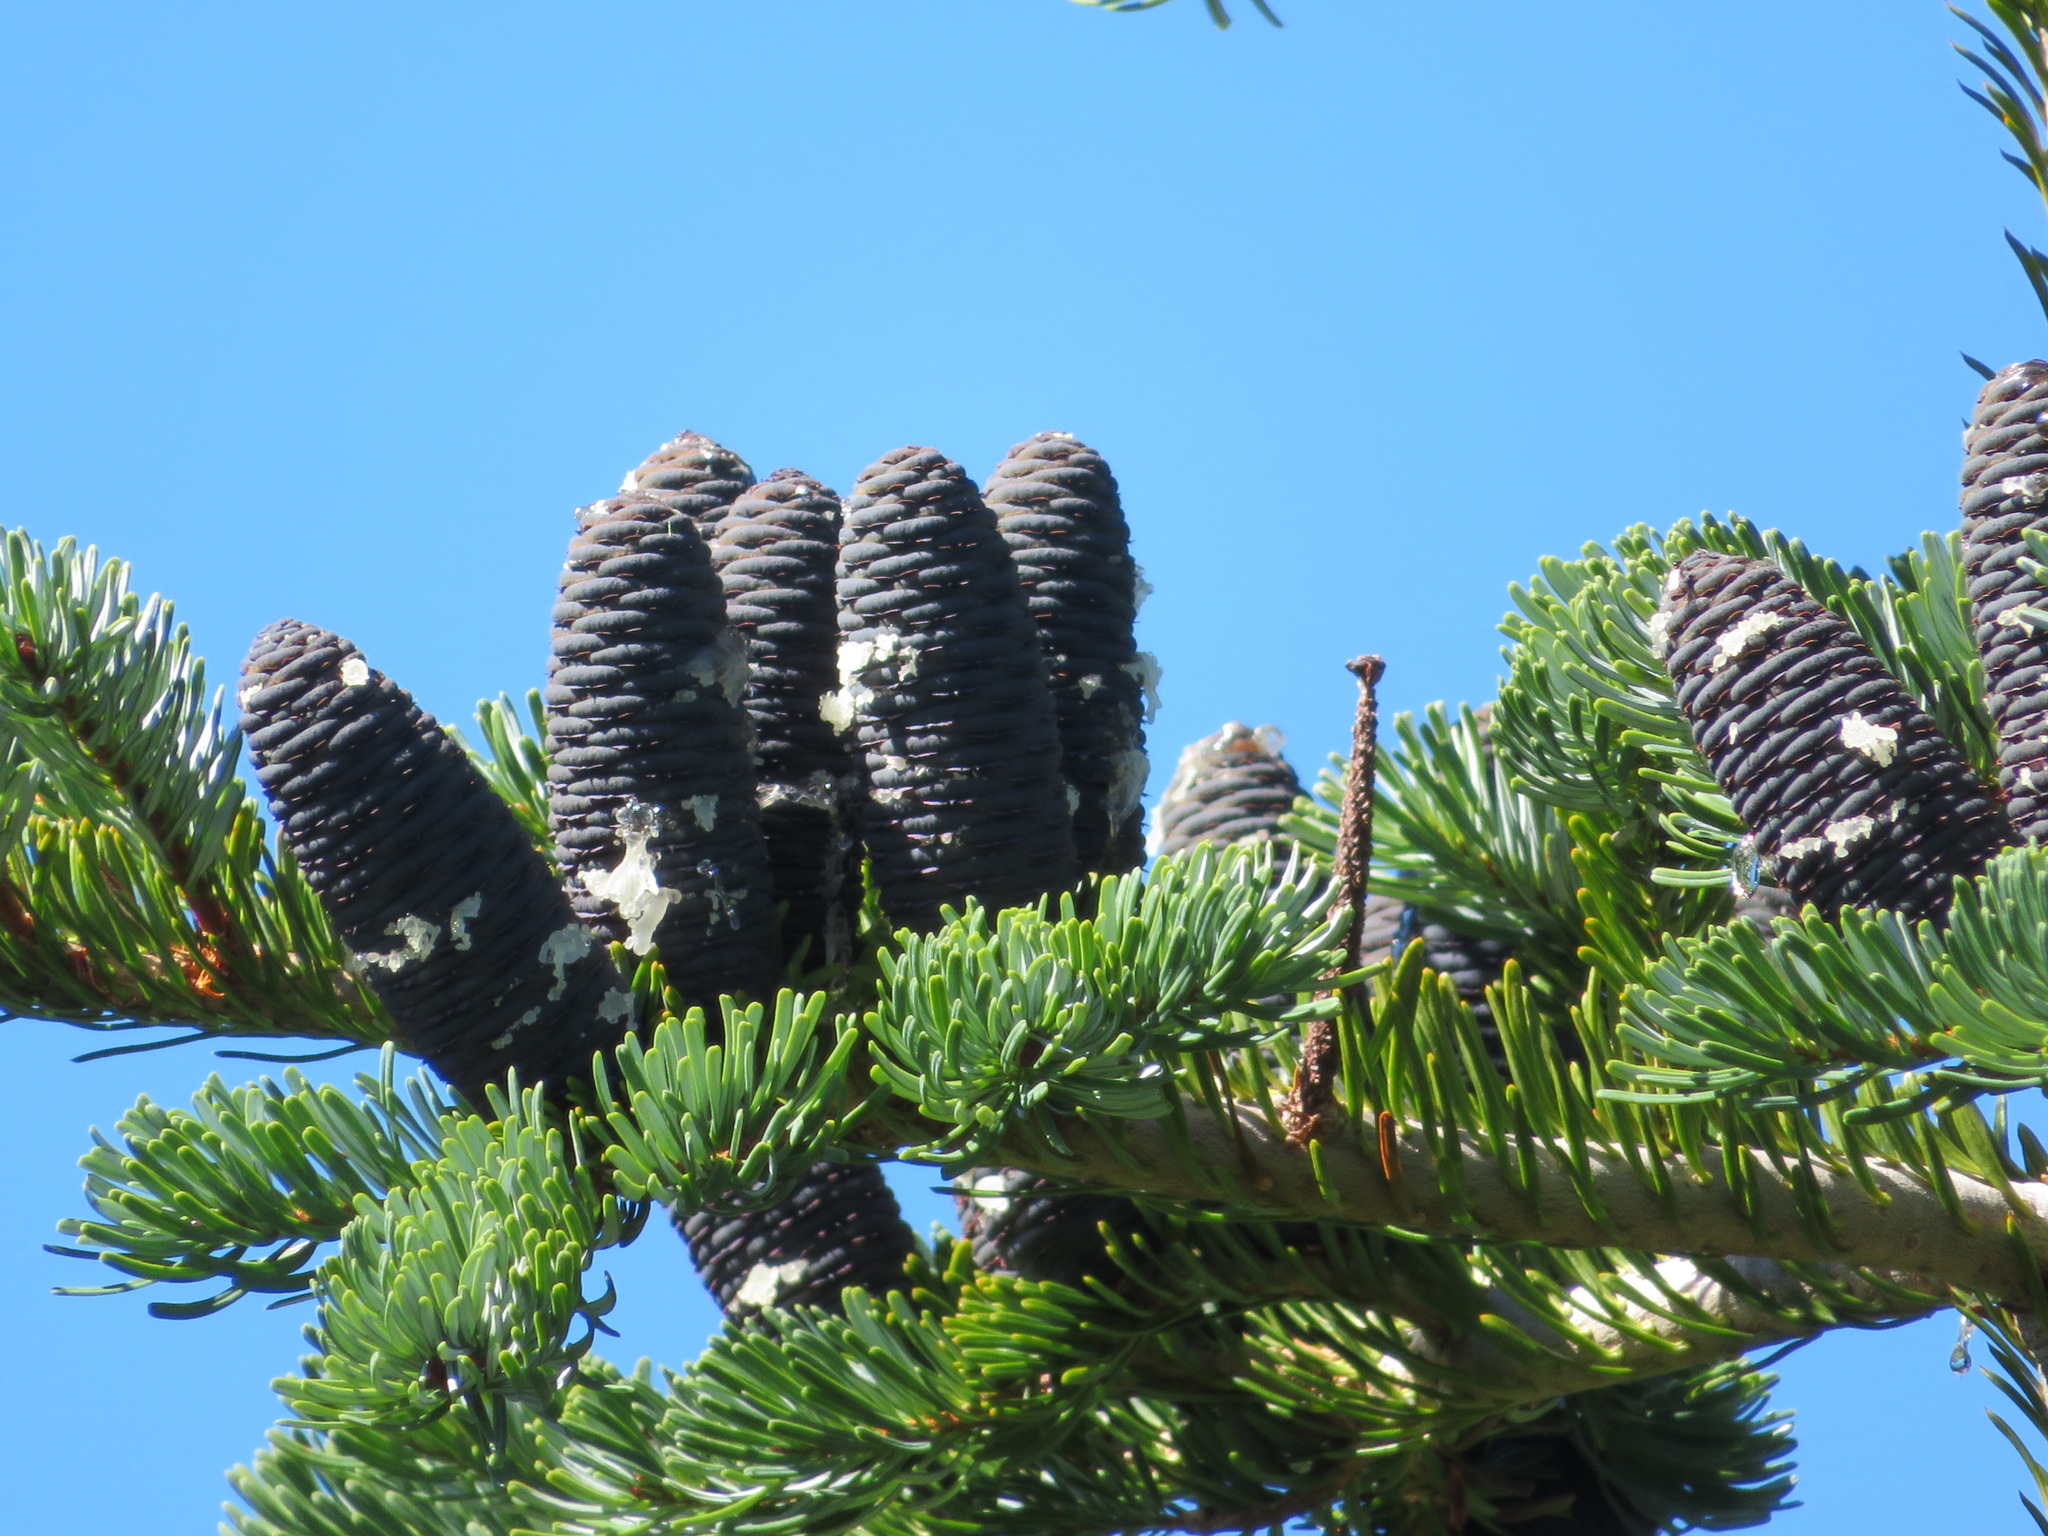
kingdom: Plantae
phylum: Tracheophyta
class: Pinopsida
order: Pinales
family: Pinaceae
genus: Abies
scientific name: Abies mariesii
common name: Marie's fir
